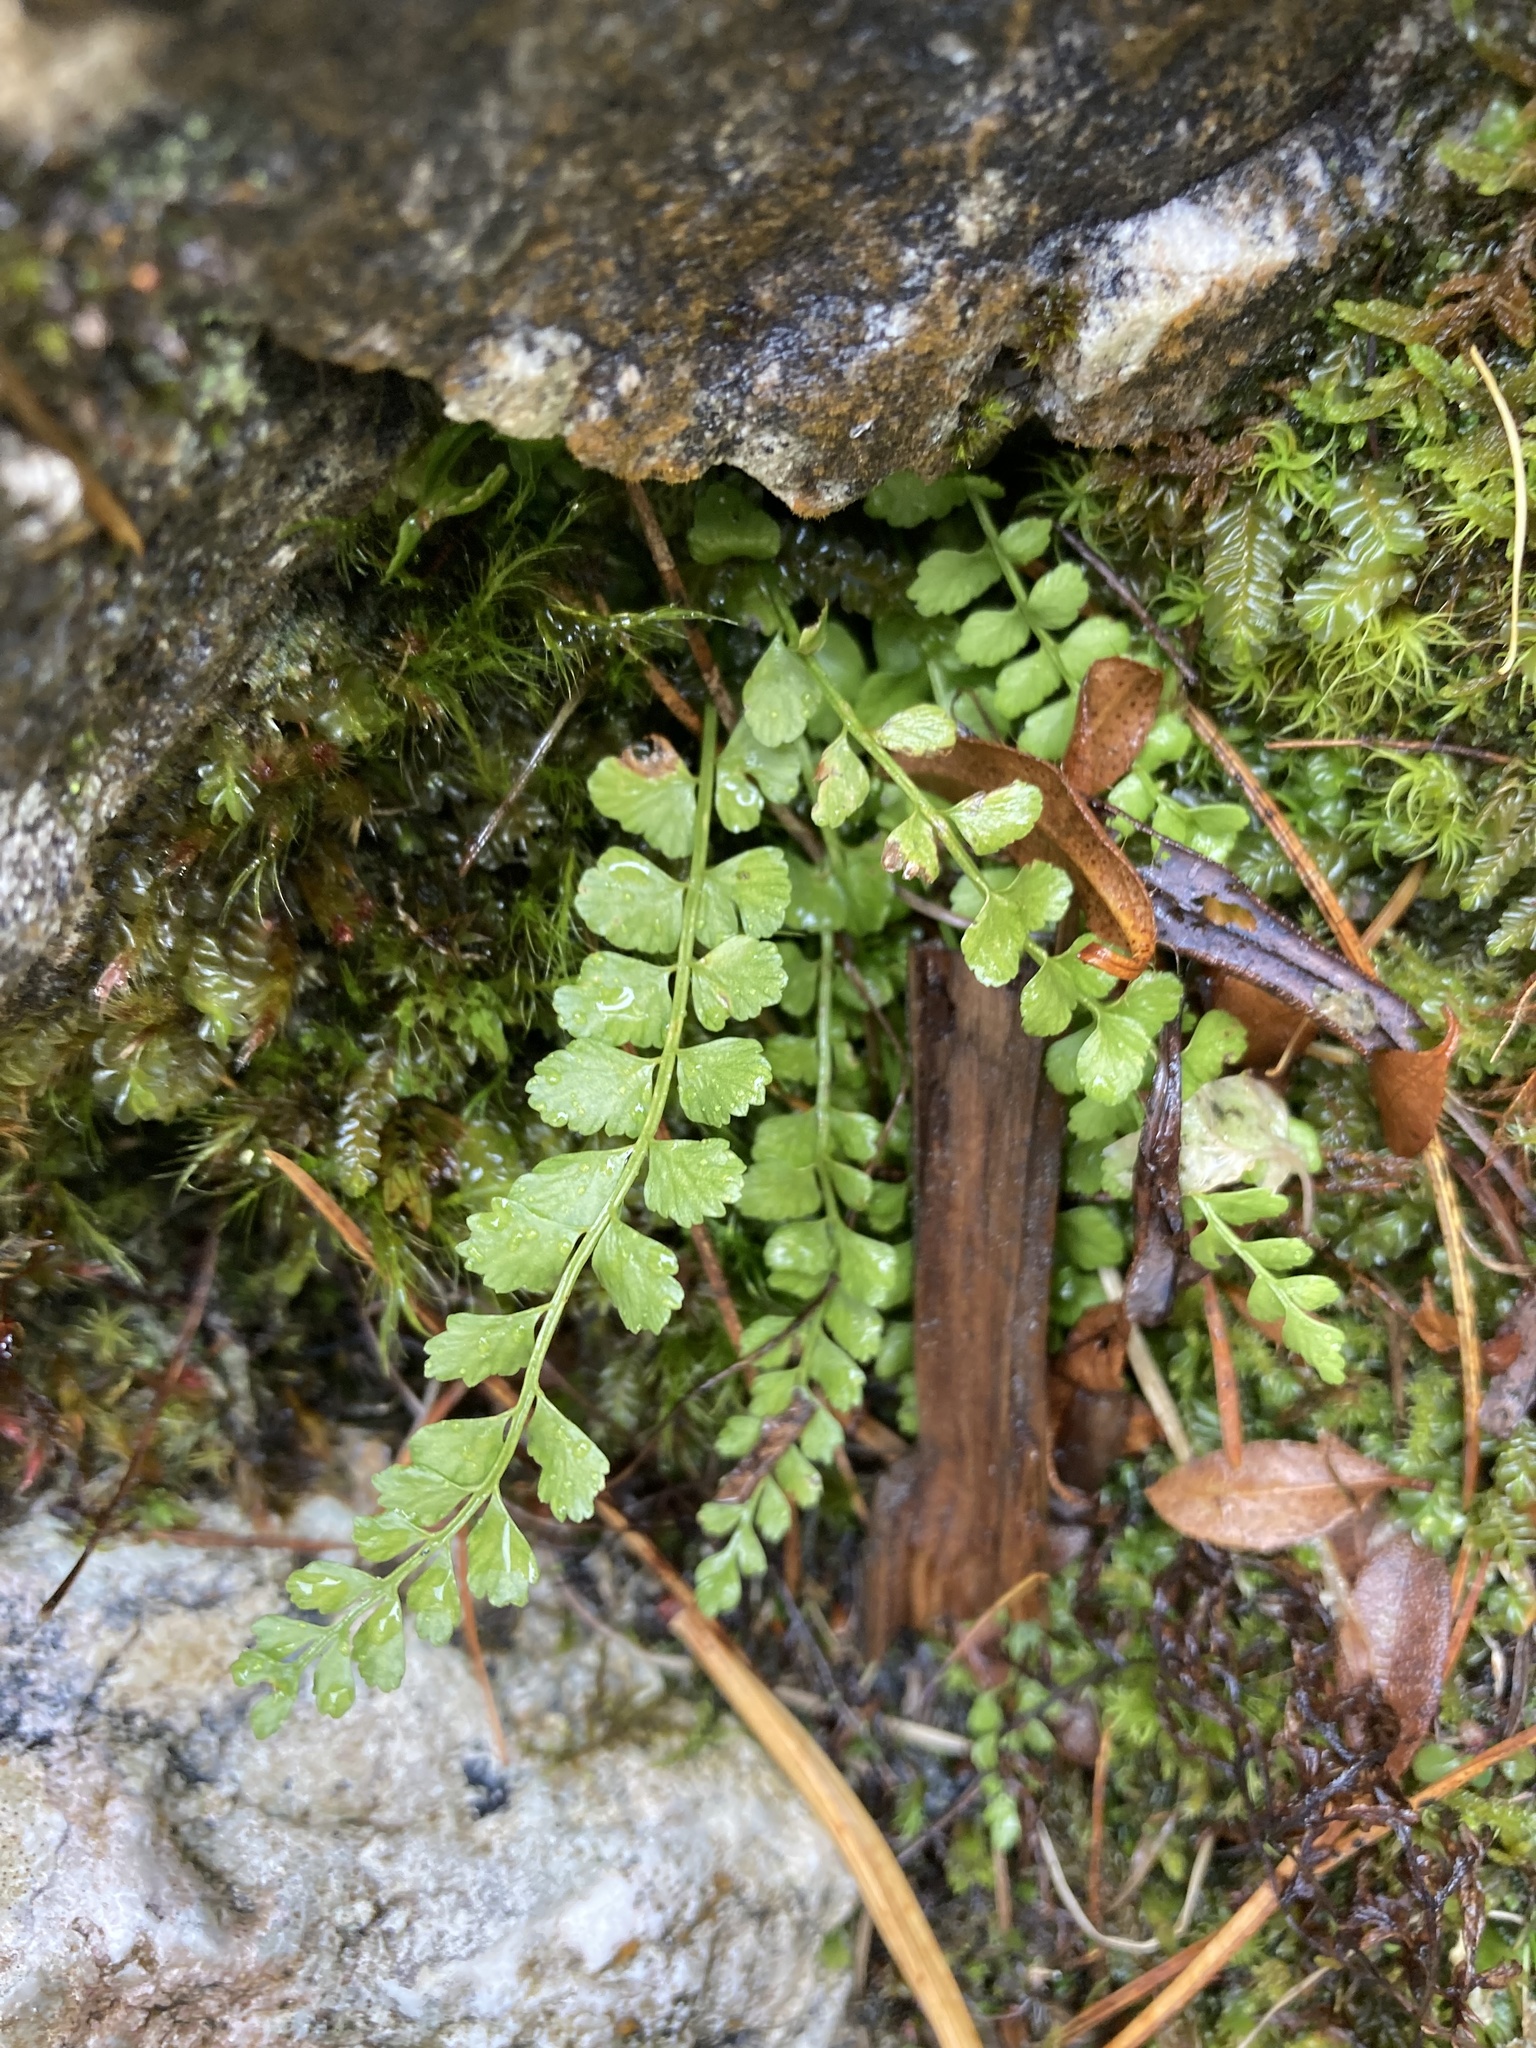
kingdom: Plantae
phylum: Tracheophyta
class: Polypodiopsida
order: Polypodiales
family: Aspleniaceae
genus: Asplenium
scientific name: Asplenium viride
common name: Green spleenwort
